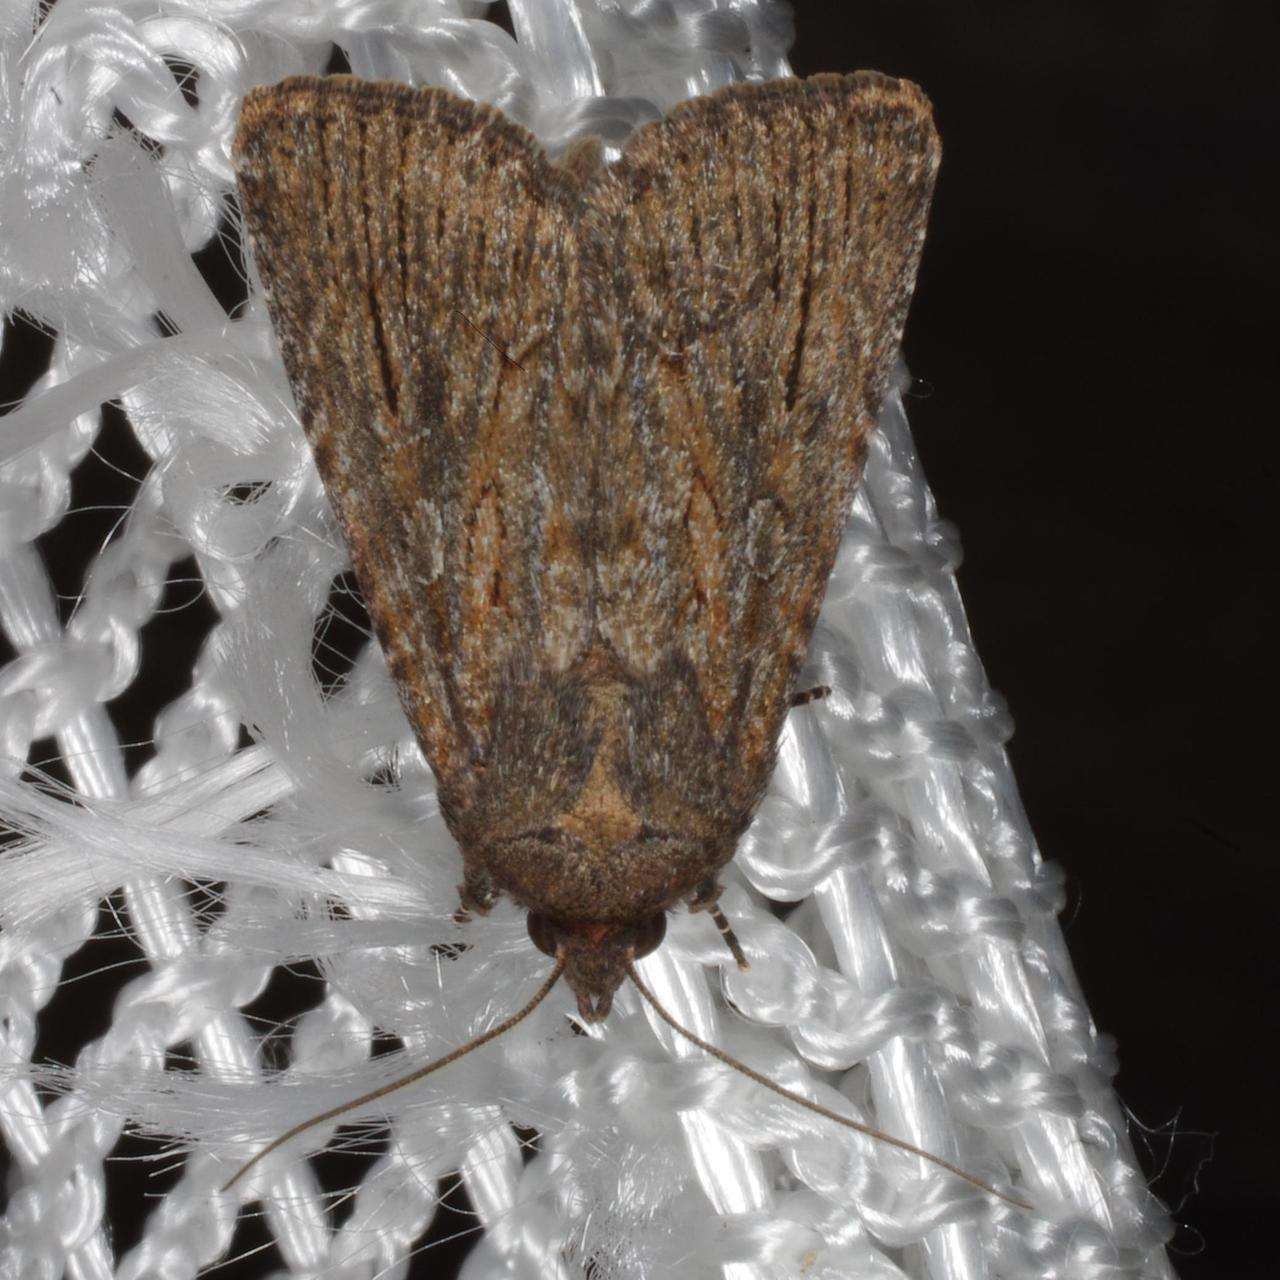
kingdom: Animalia
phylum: Arthropoda
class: Insecta
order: Lepidoptera
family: Noctuidae
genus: Ectopatria
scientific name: Ectopatria mundoides
